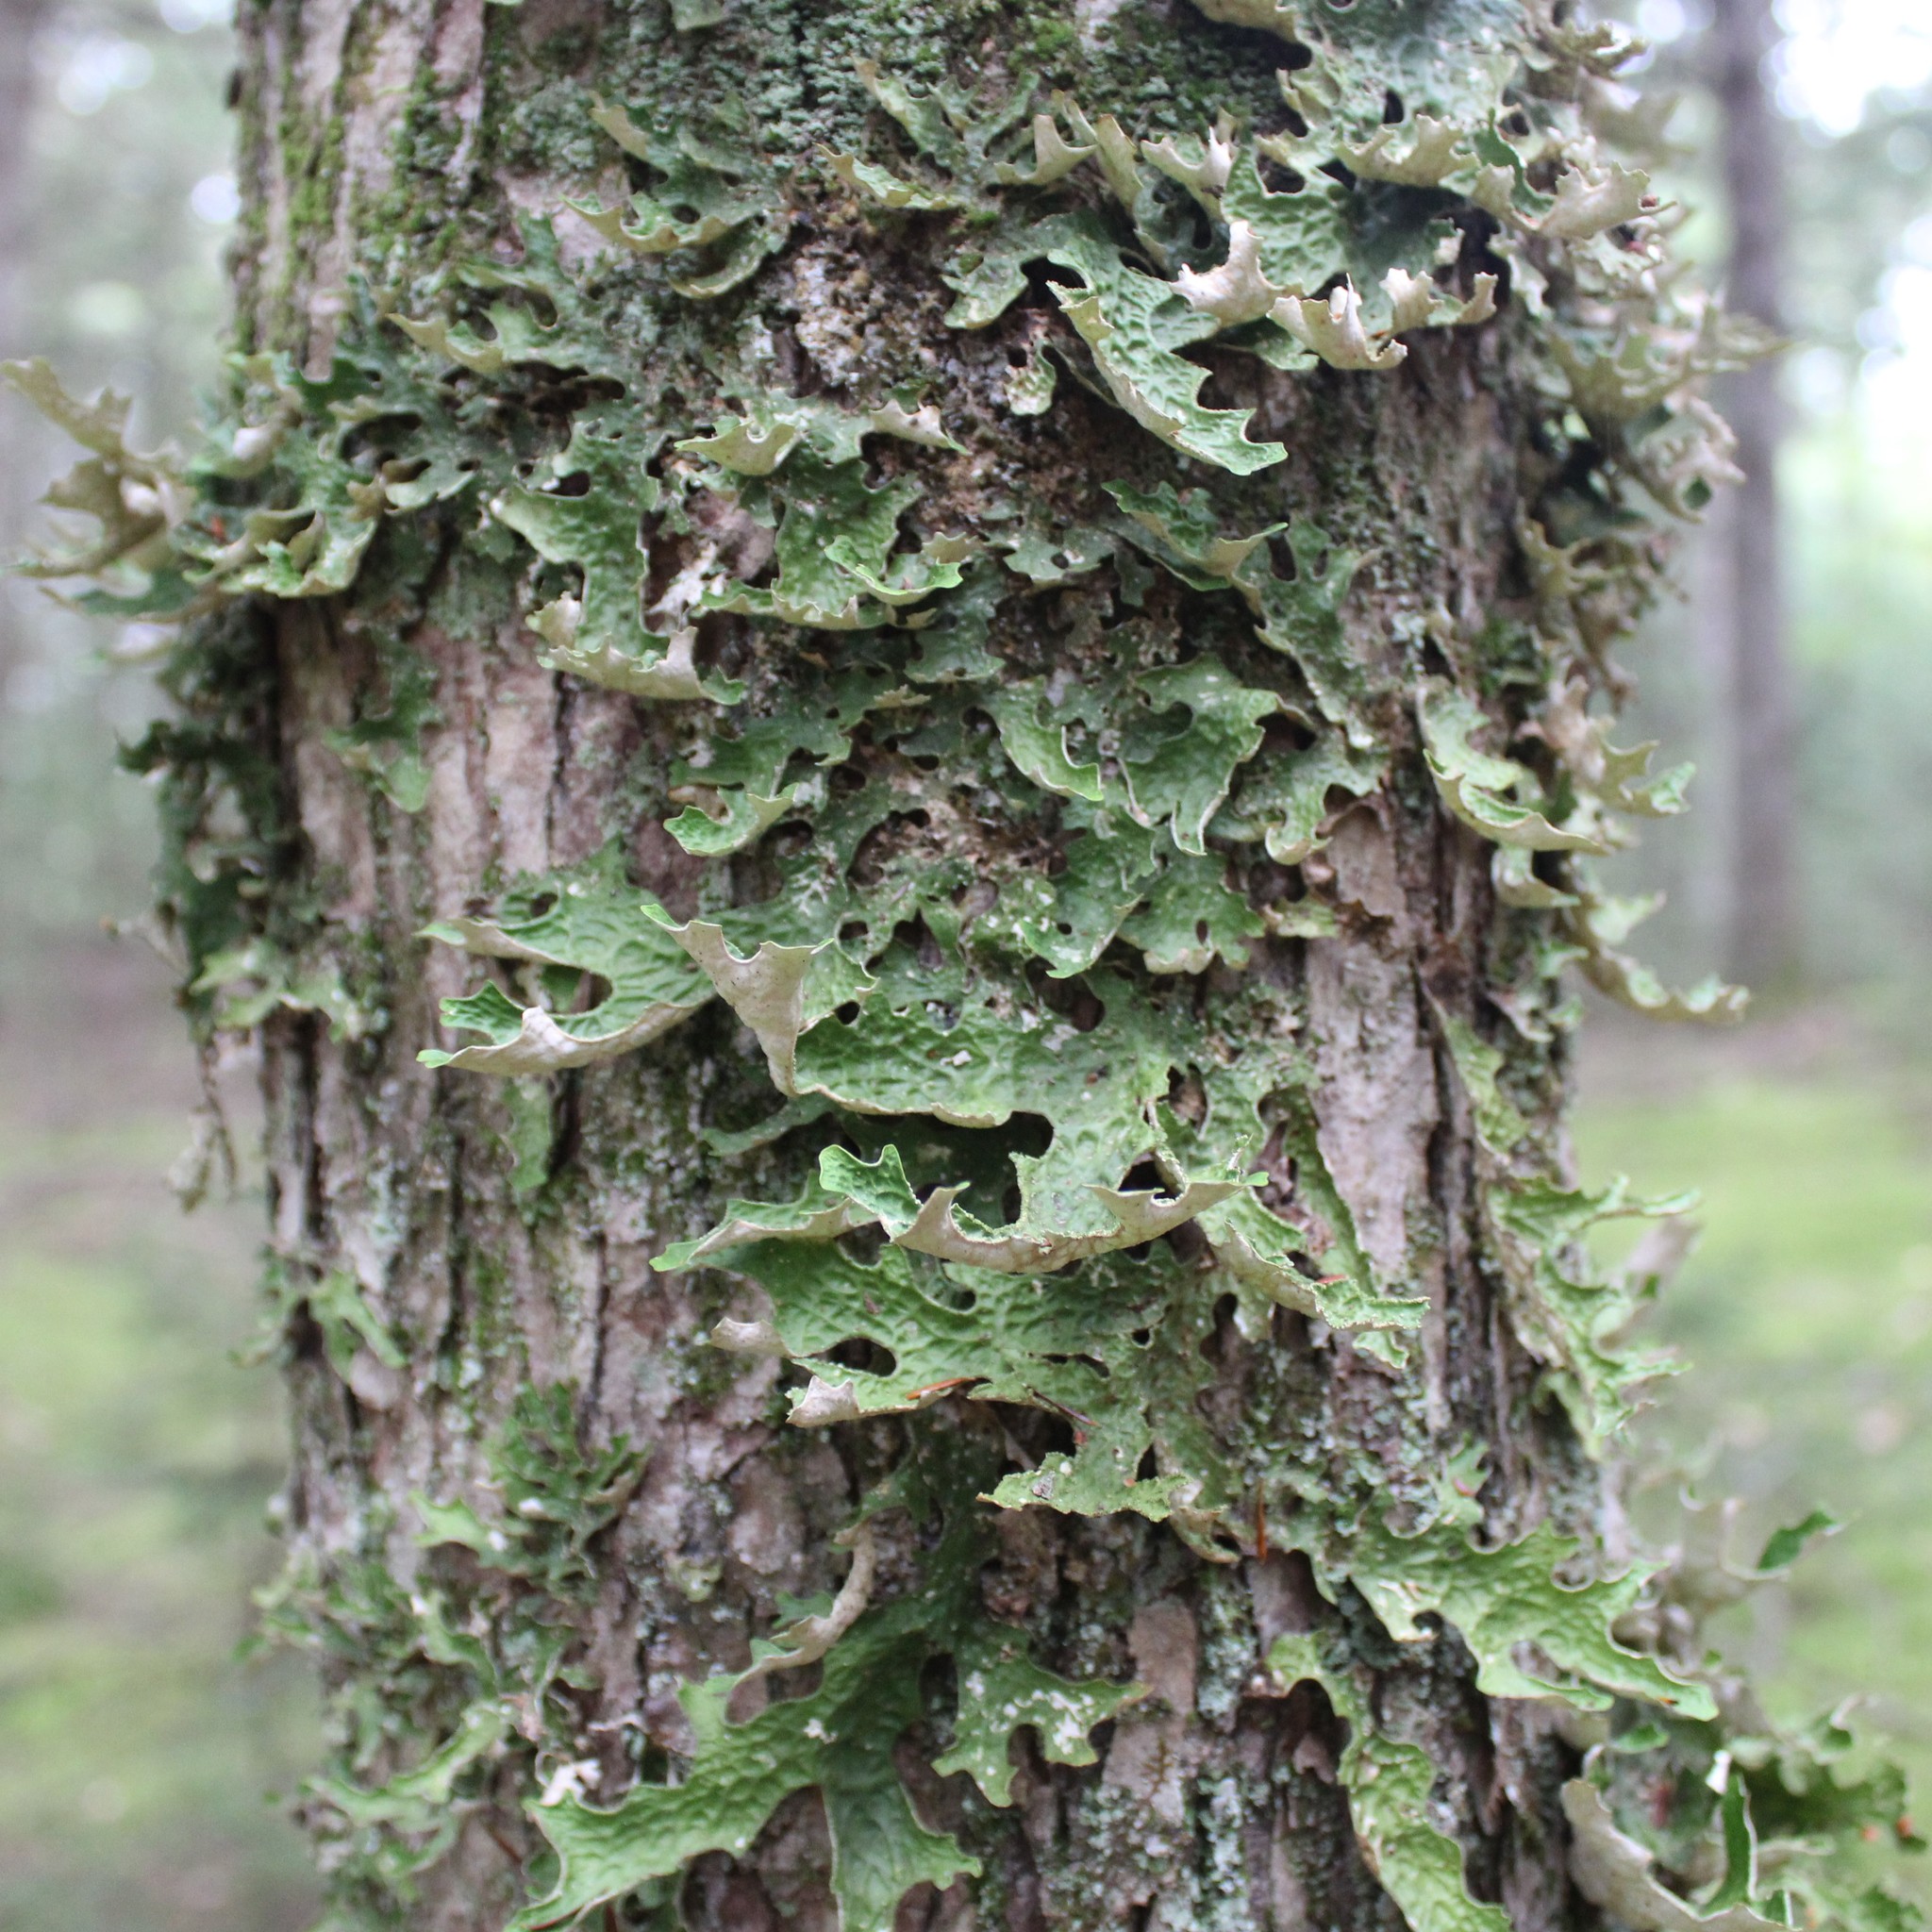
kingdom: Fungi
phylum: Ascomycota
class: Lecanoromycetes
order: Peltigerales
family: Lobariaceae
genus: Lobaria
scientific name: Lobaria pulmonaria
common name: Lungwort
